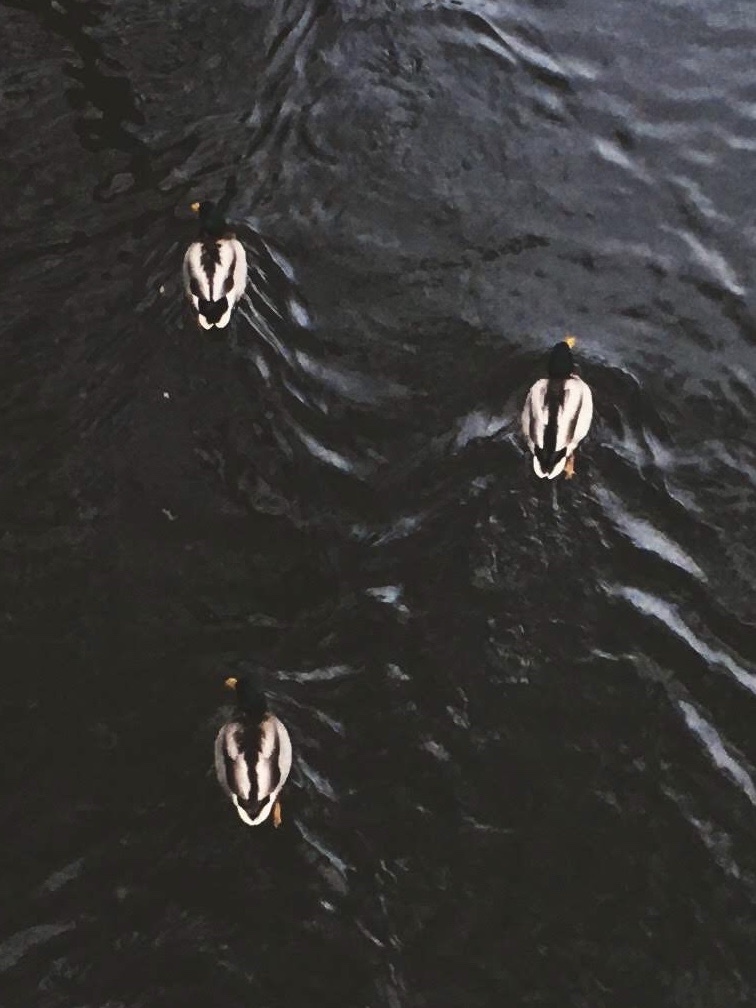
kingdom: Animalia
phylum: Chordata
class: Aves
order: Anseriformes
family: Anatidae
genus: Anas
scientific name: Anas platyrhynchos
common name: Mallard
